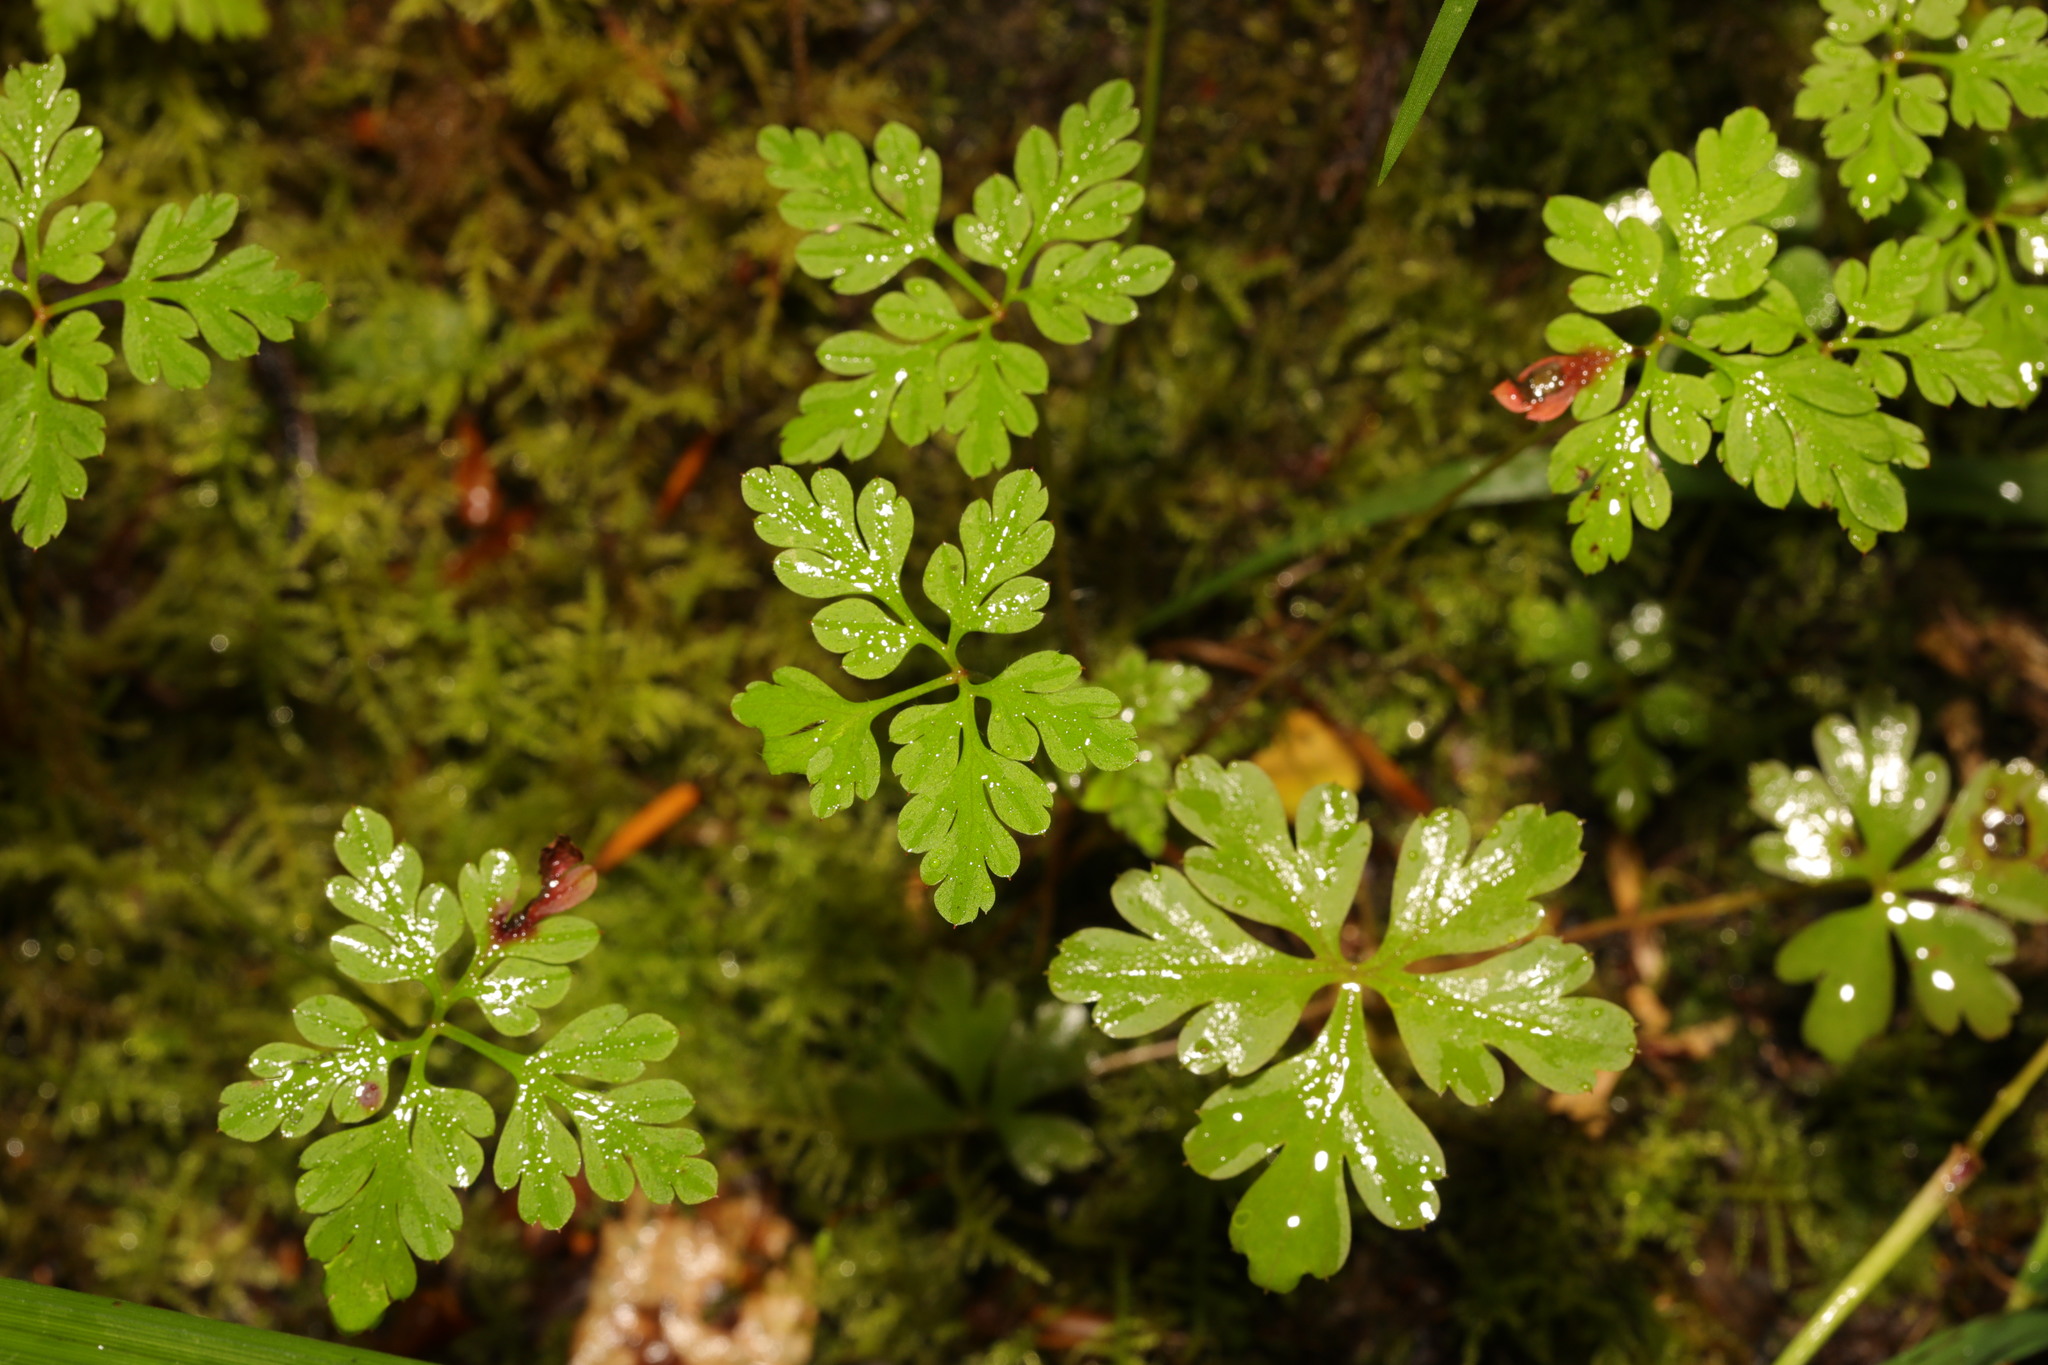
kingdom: Plantae
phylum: Tracheophyta
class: Magnoliopsida
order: Geraniales
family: Geraniaceae
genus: Geranium
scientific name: Geranium robertianum
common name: Herb-robert
